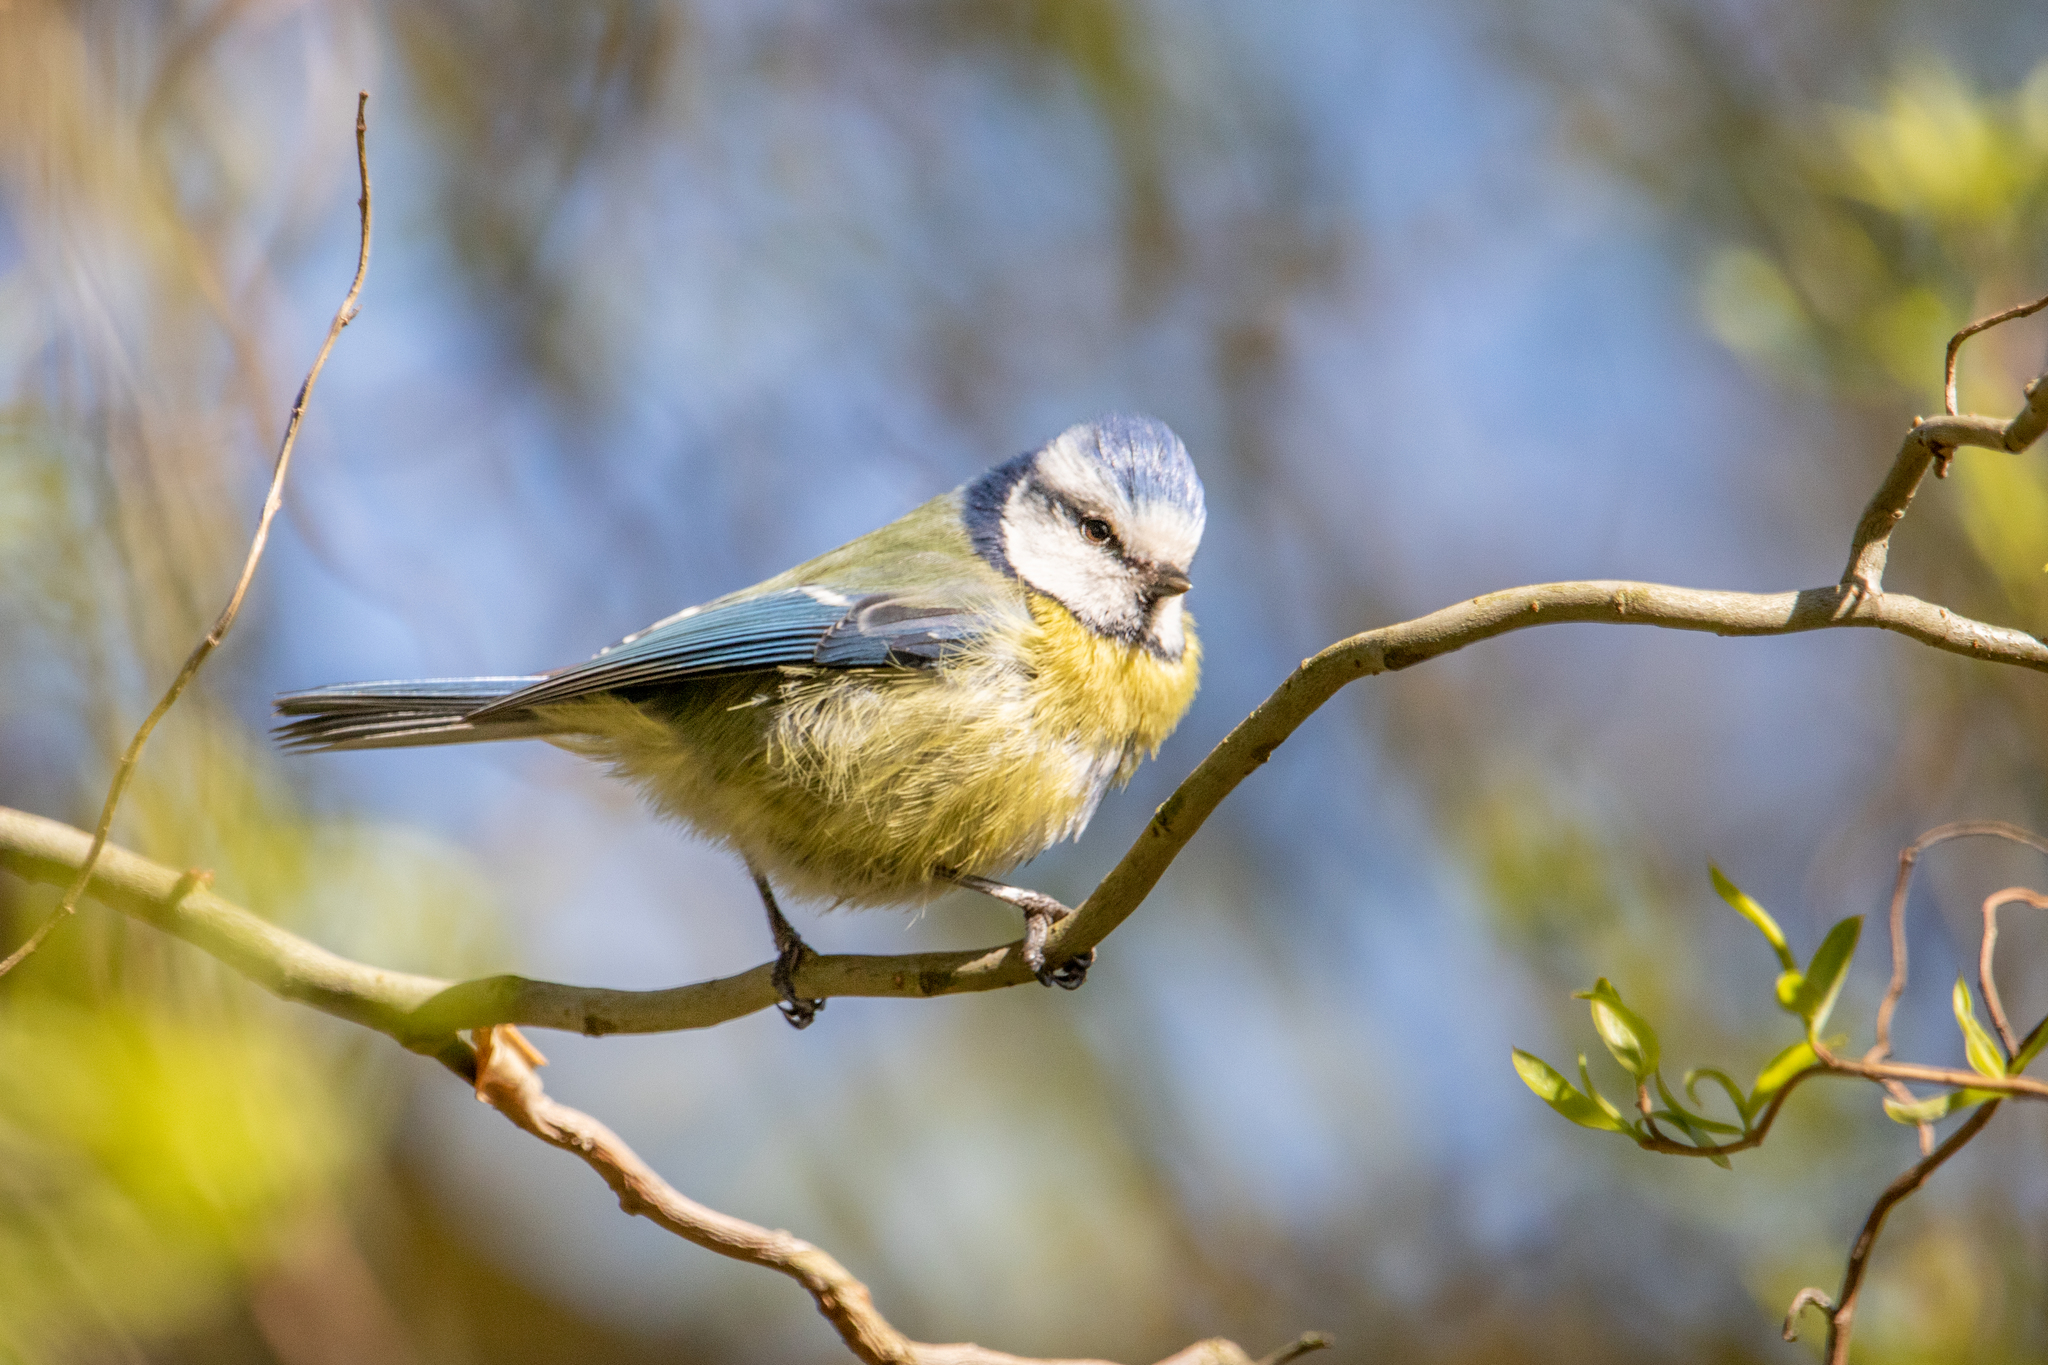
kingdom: Animalia
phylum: Chordata
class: Aves
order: Passeriformes
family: Paridae
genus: Cyanistes
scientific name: Cyanistes caeruleus
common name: Eurasian blue tit
